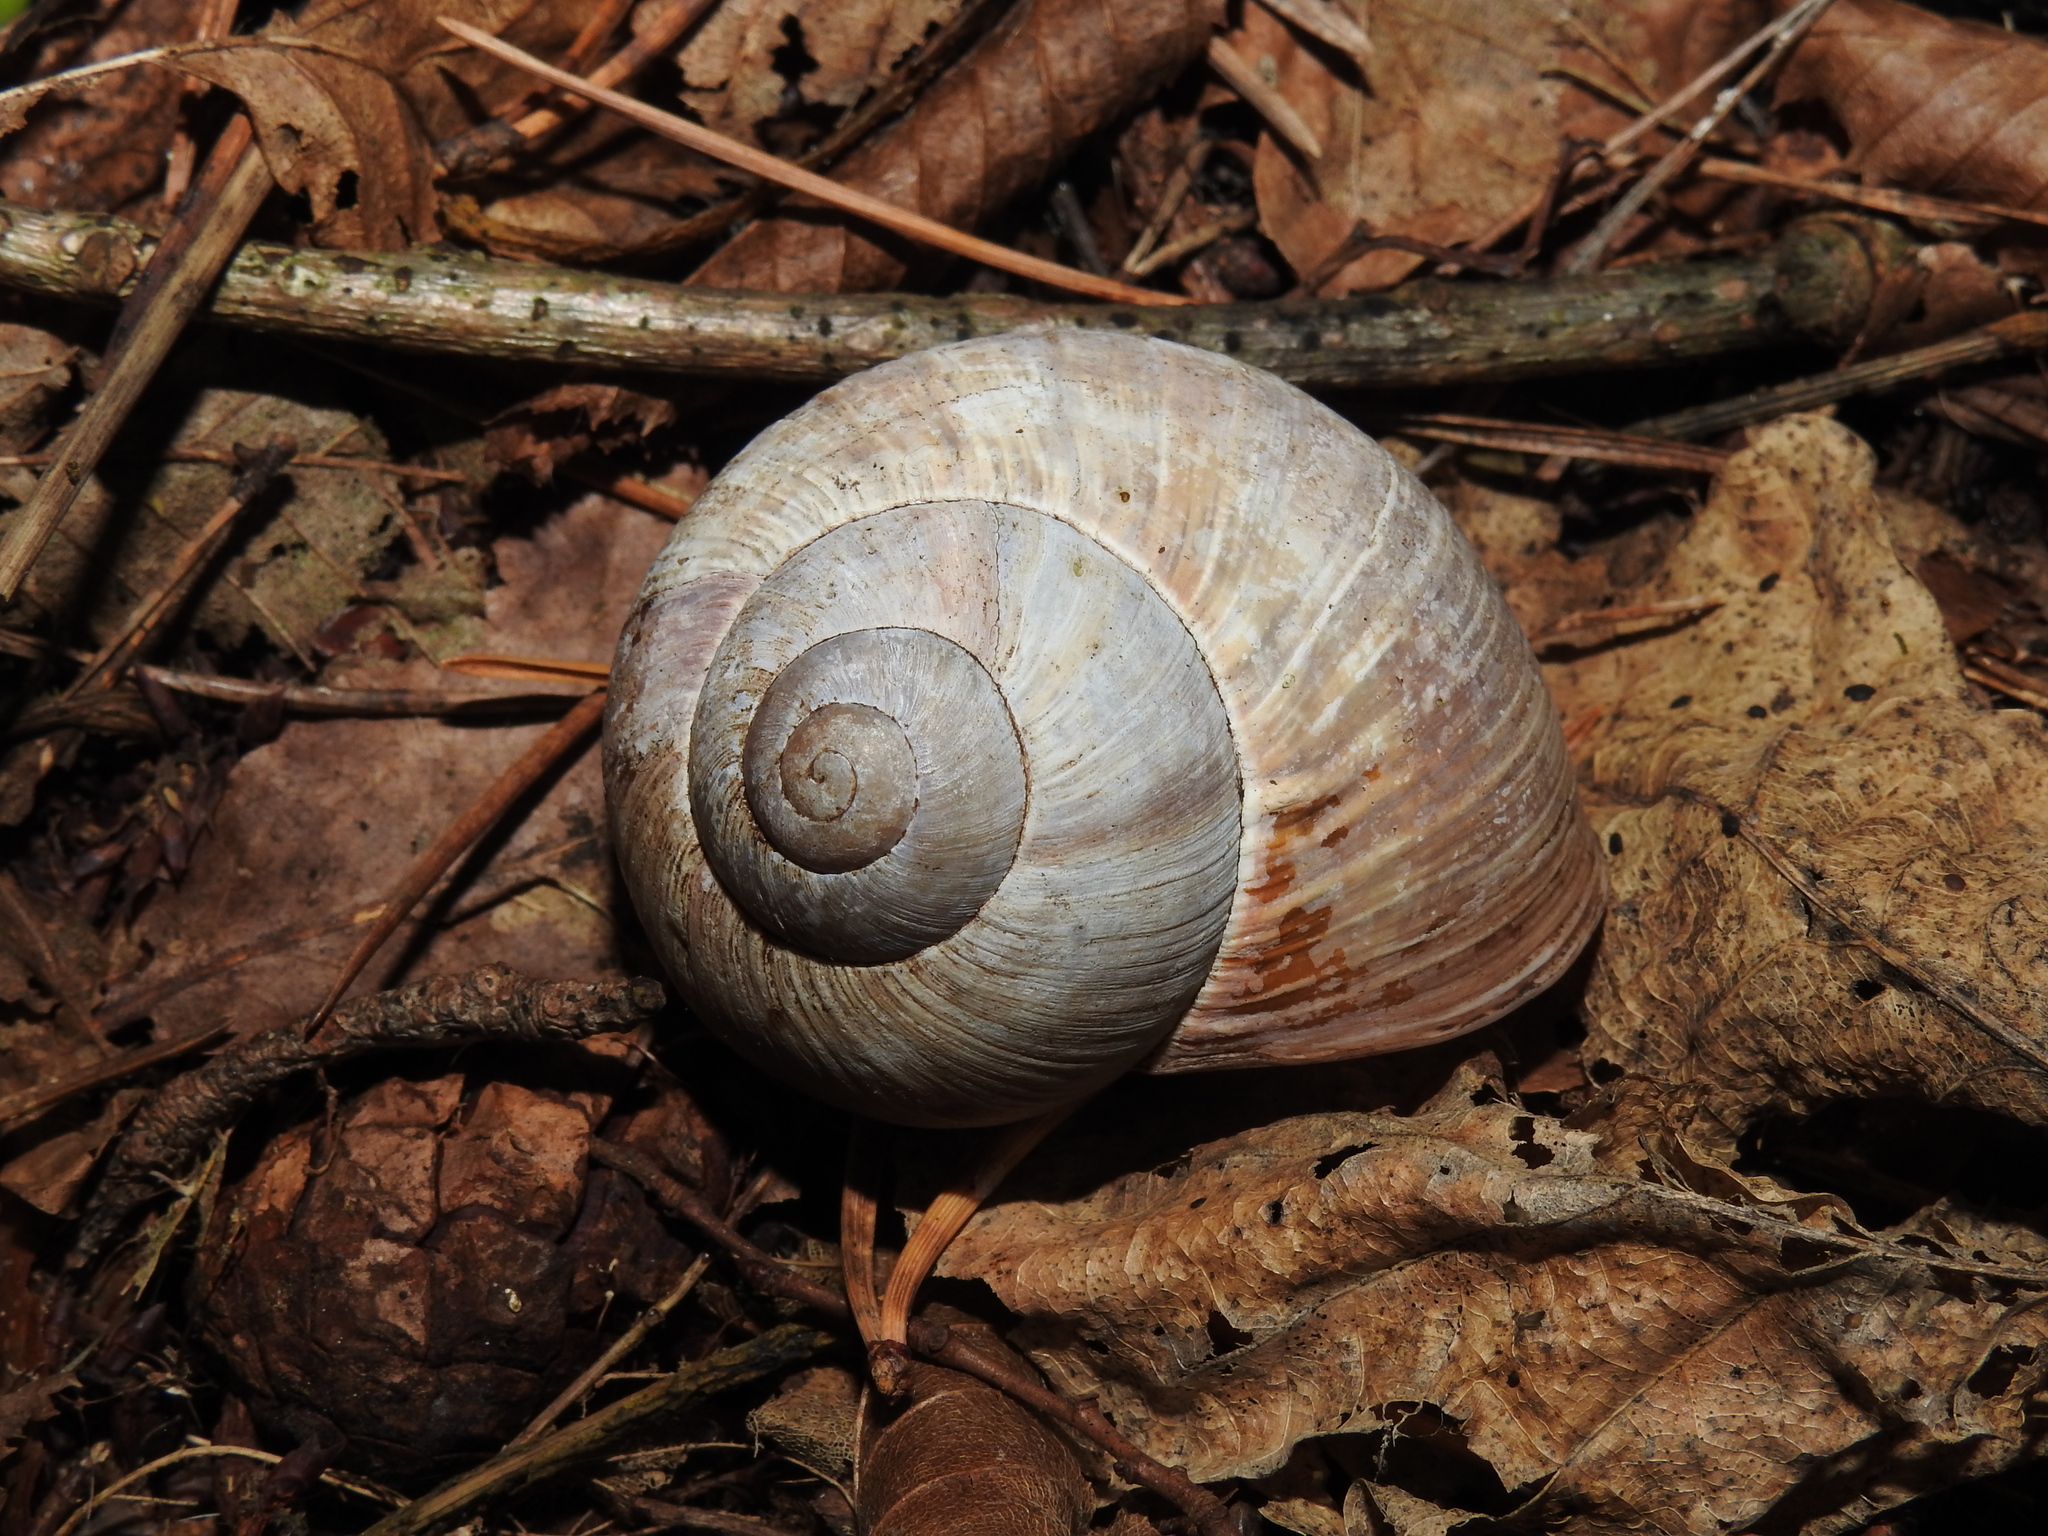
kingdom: Animalia
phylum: Mollusca
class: Gastropoda
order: Stylommatophora
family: Helicidae
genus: Helix
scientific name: Helix pomatia
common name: Roman snail
